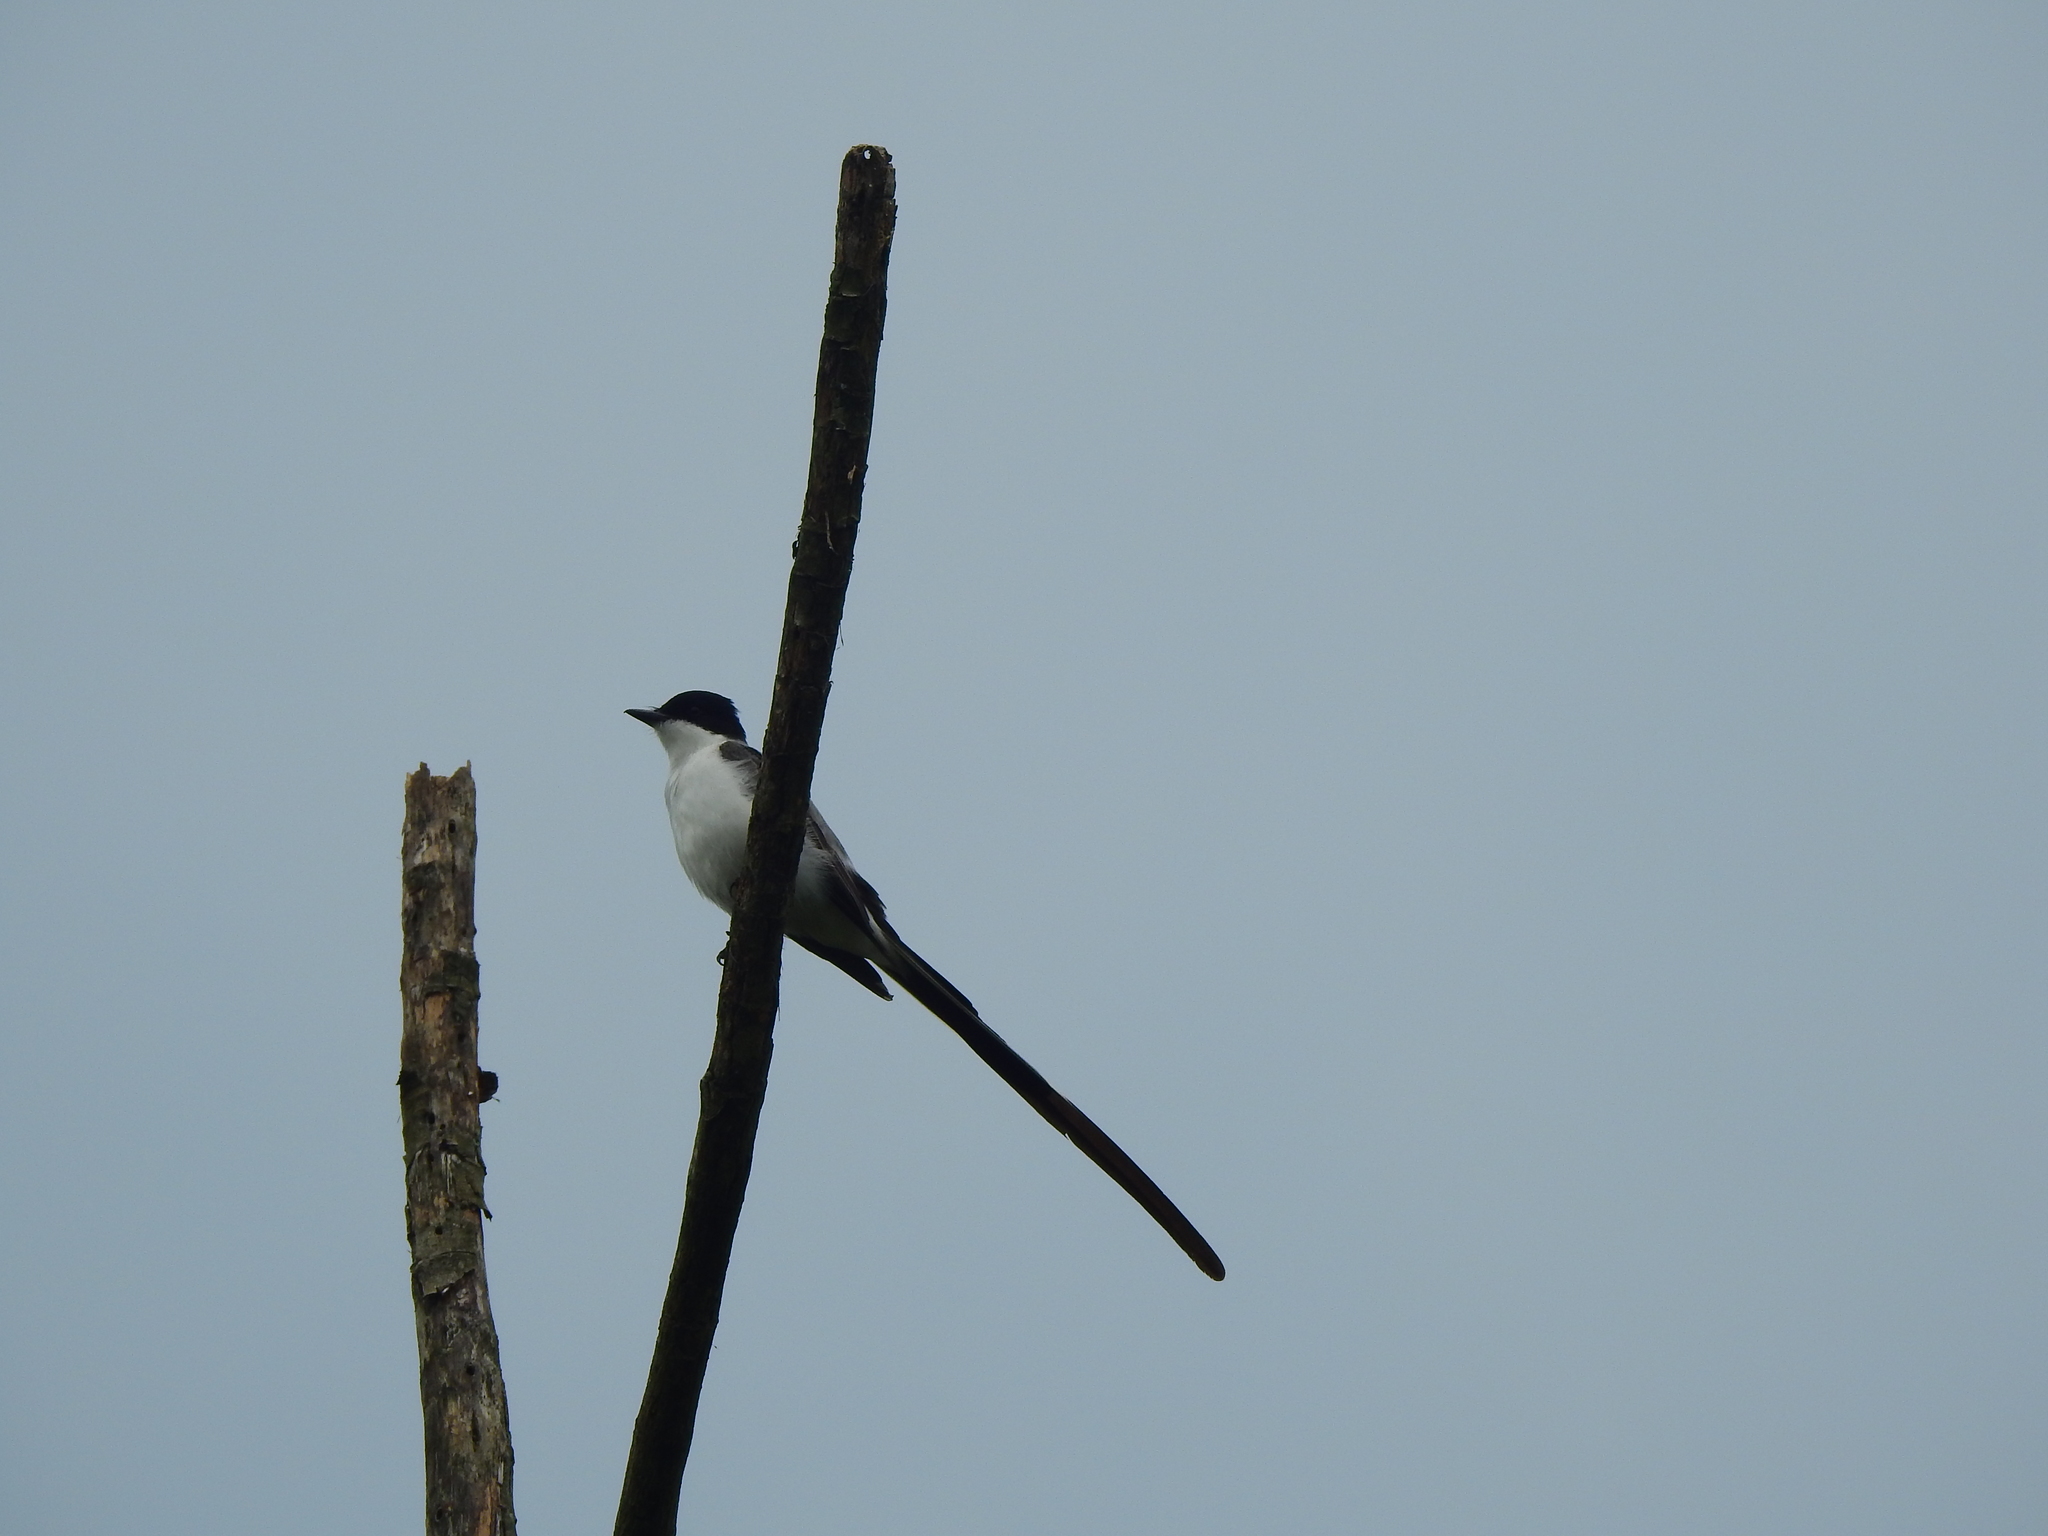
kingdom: Animalia
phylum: Chordata
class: Aves
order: Passeriformes
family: Tyrannidae
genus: Tyrannus
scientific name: Tyrannus savana
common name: Fork-tailed flycatcher
